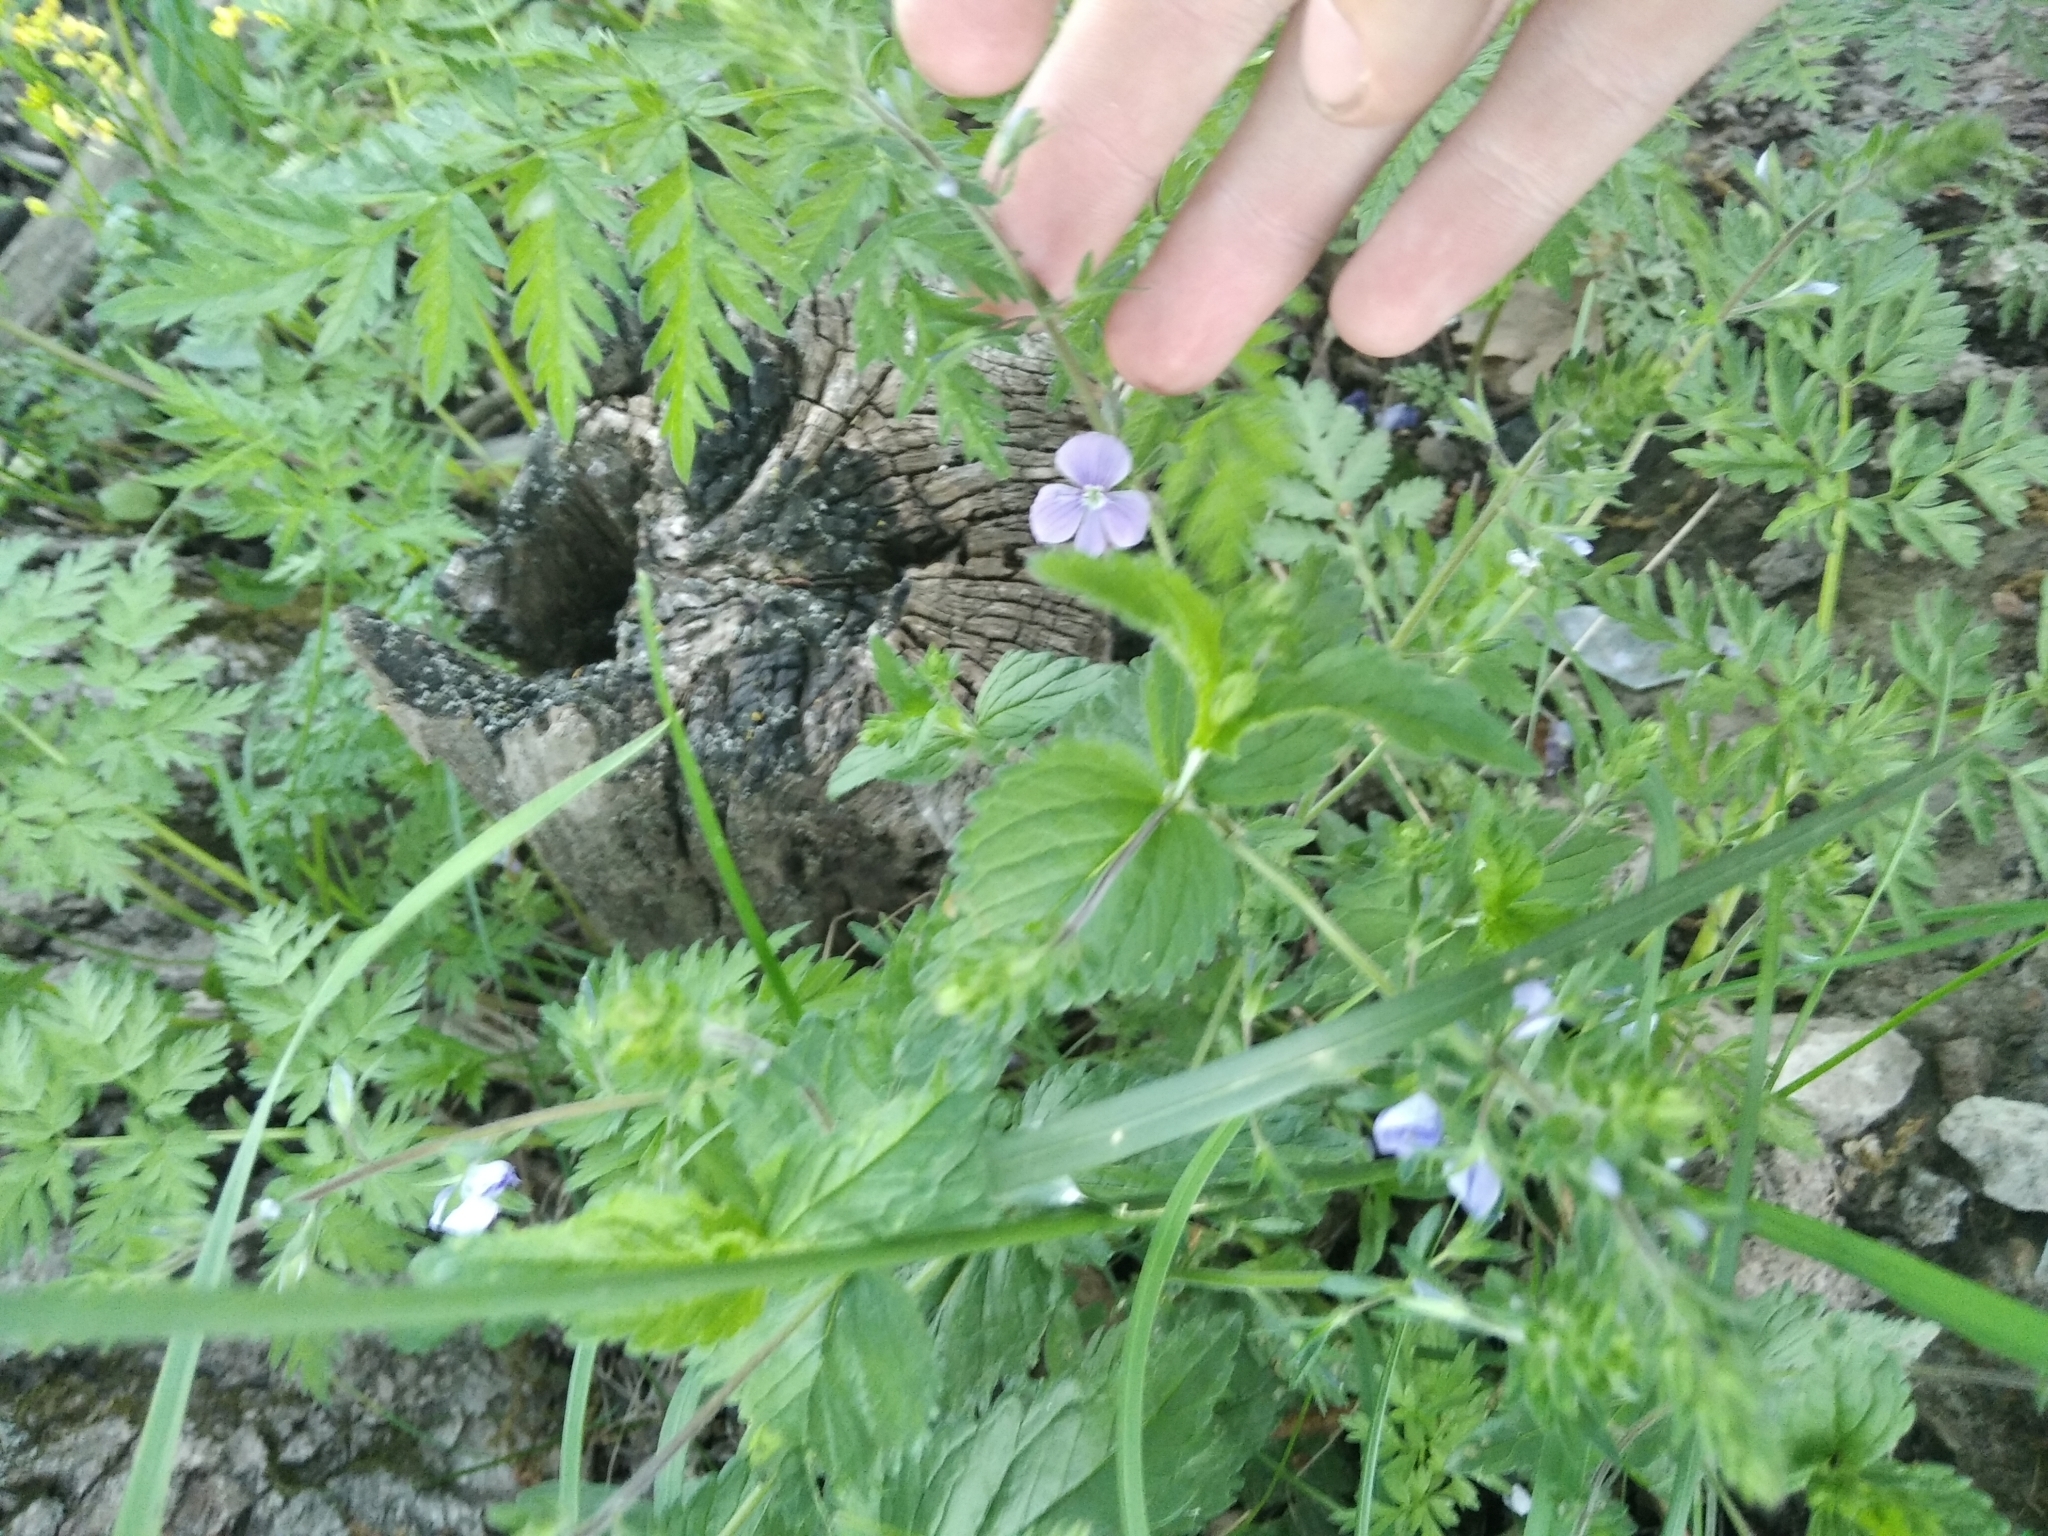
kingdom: Plantae
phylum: Tracheophyta
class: Magnoliopsida
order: Lamiales
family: Plantaginaceae
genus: Veronica
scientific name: Veronica chamaedrys
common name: Germander speedwell
